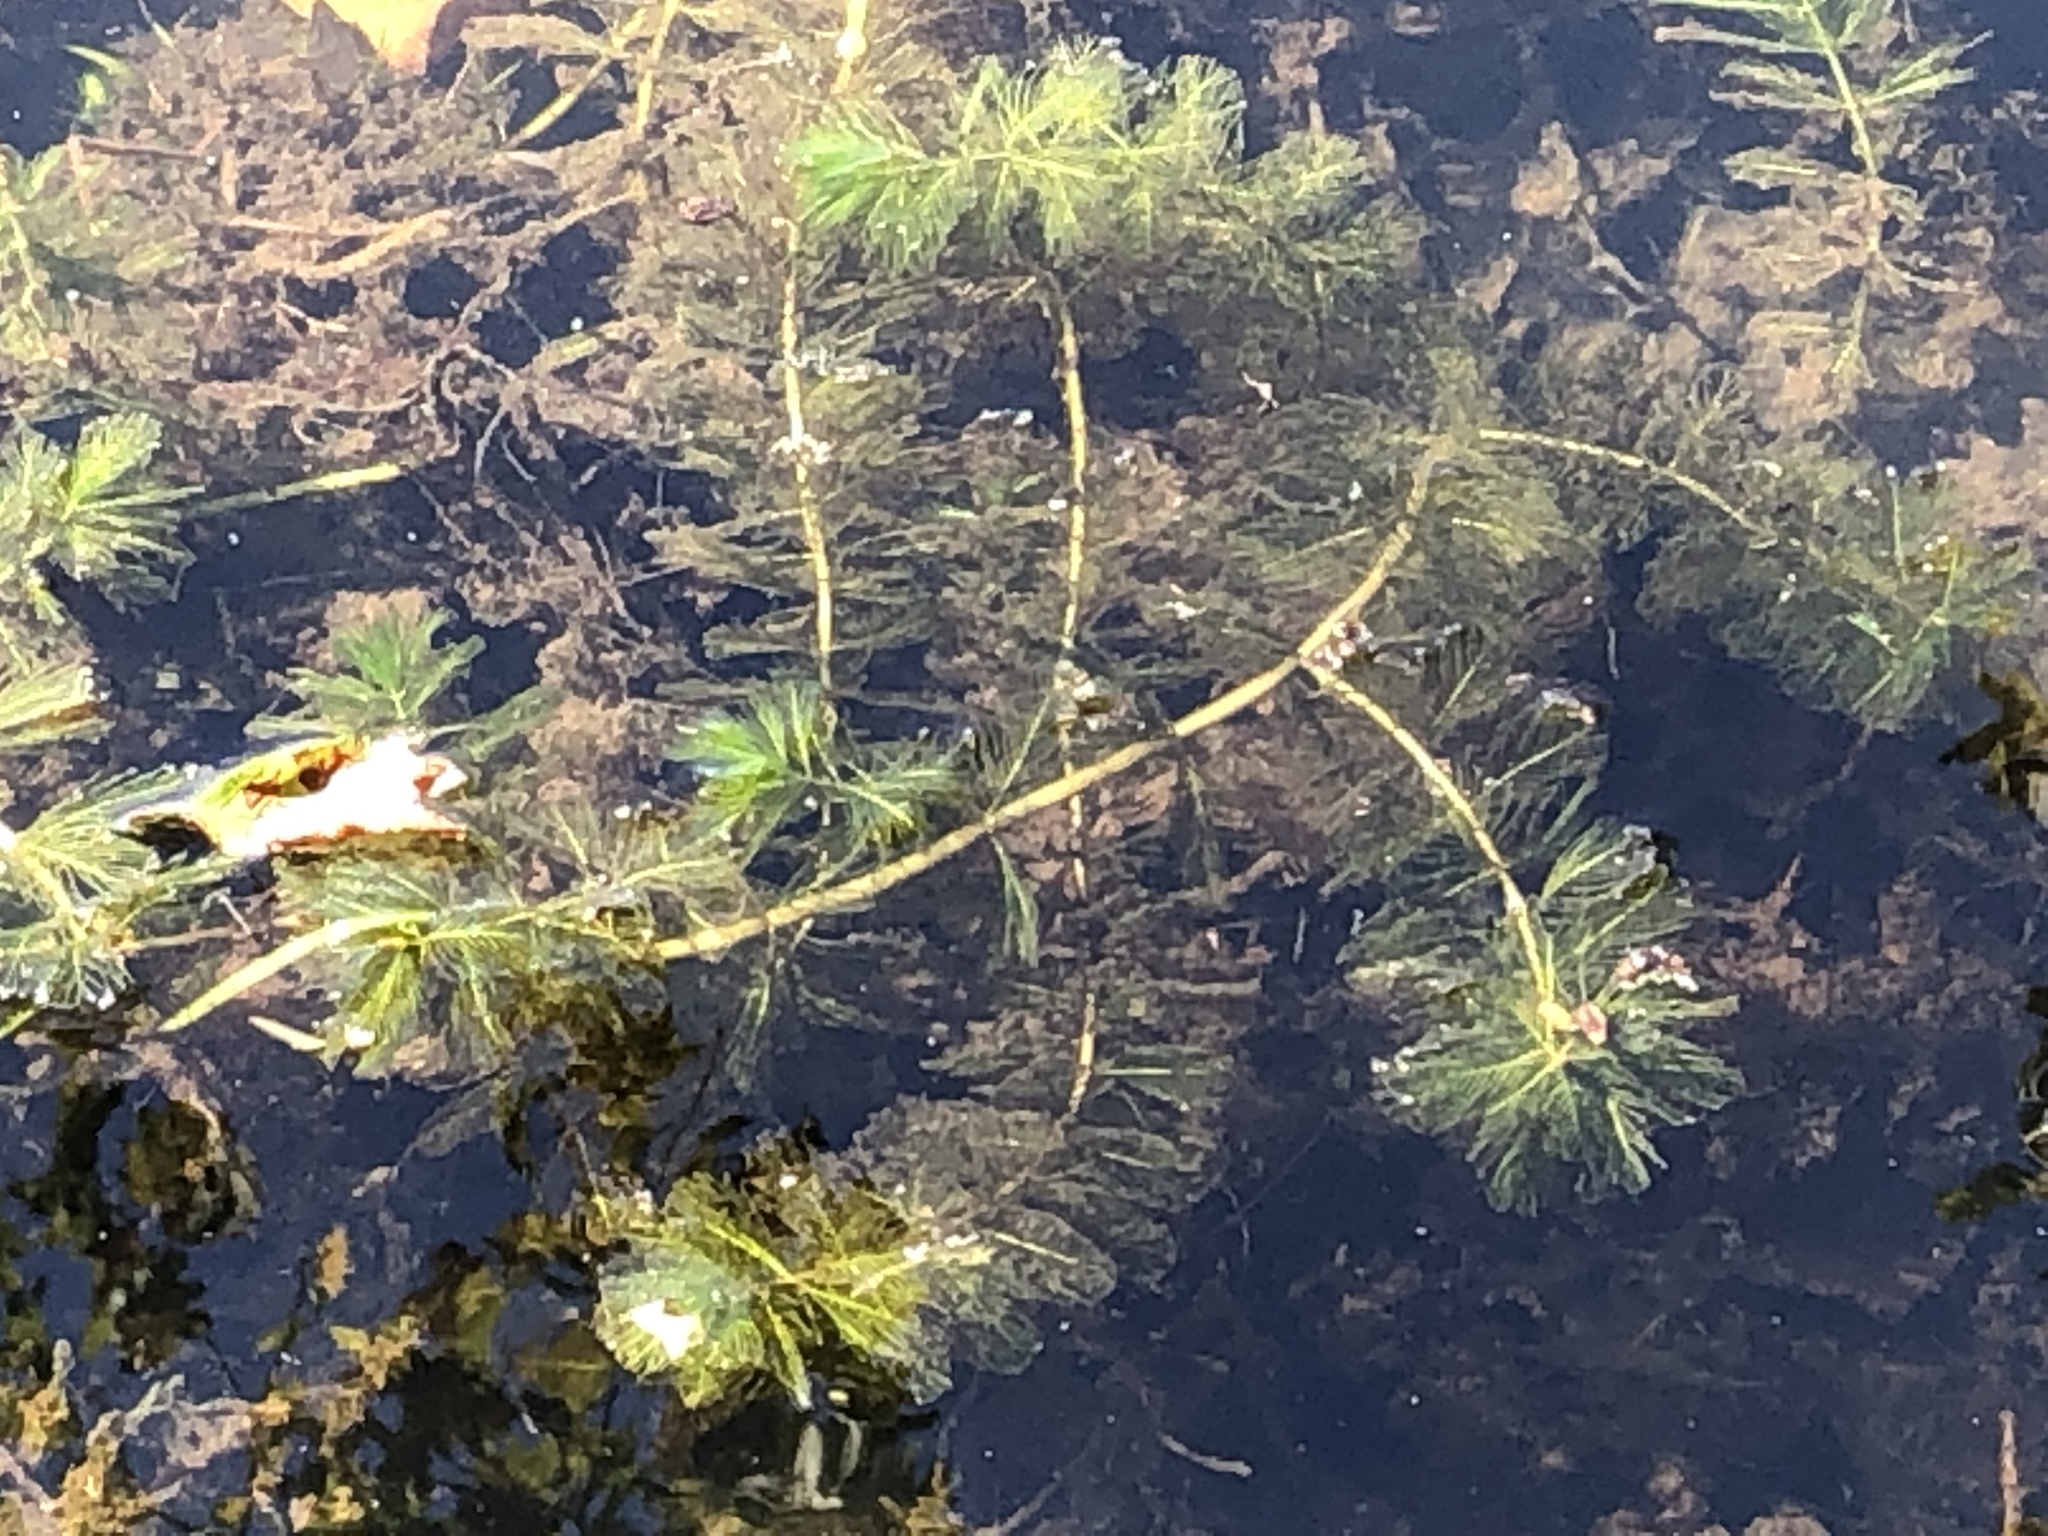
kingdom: Plantae
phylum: Tracheophyta
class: Magnoliopsida
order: Saxifragales
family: Haloragaceae
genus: Myriophyllum
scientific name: Myriophyllum spicatum
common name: Spiked water-milfoil
